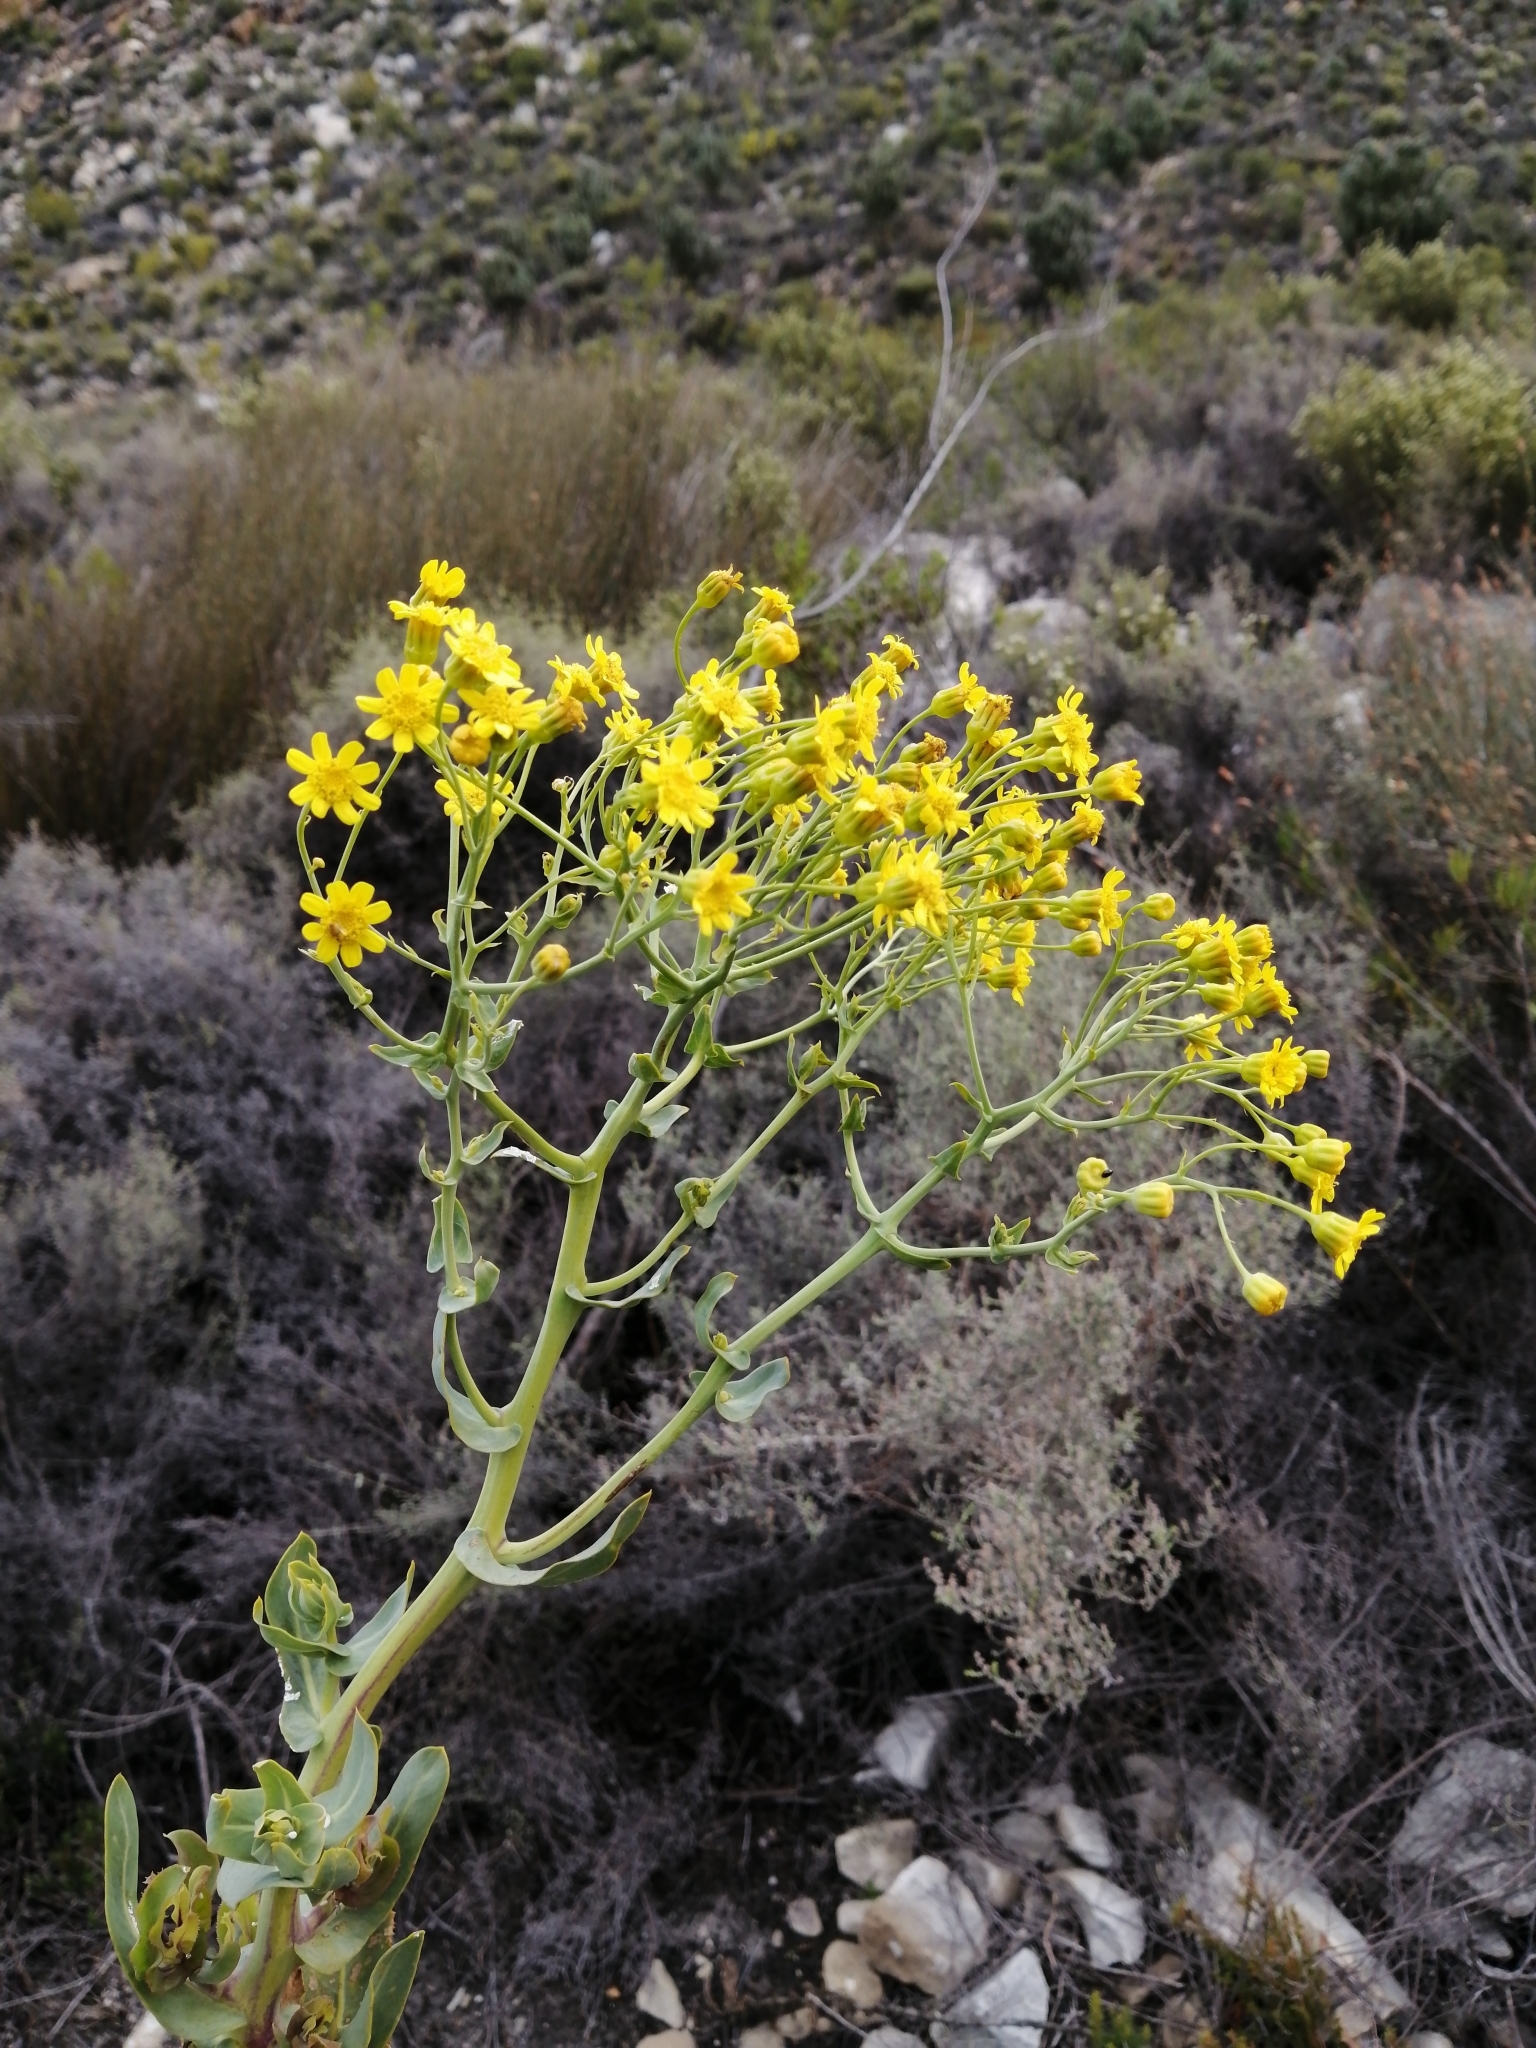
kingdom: Plantae
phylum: Tracheophyta
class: Magnoliopsida
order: Asterales
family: Asteraceae
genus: Othonna
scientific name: Othonna parviflora
